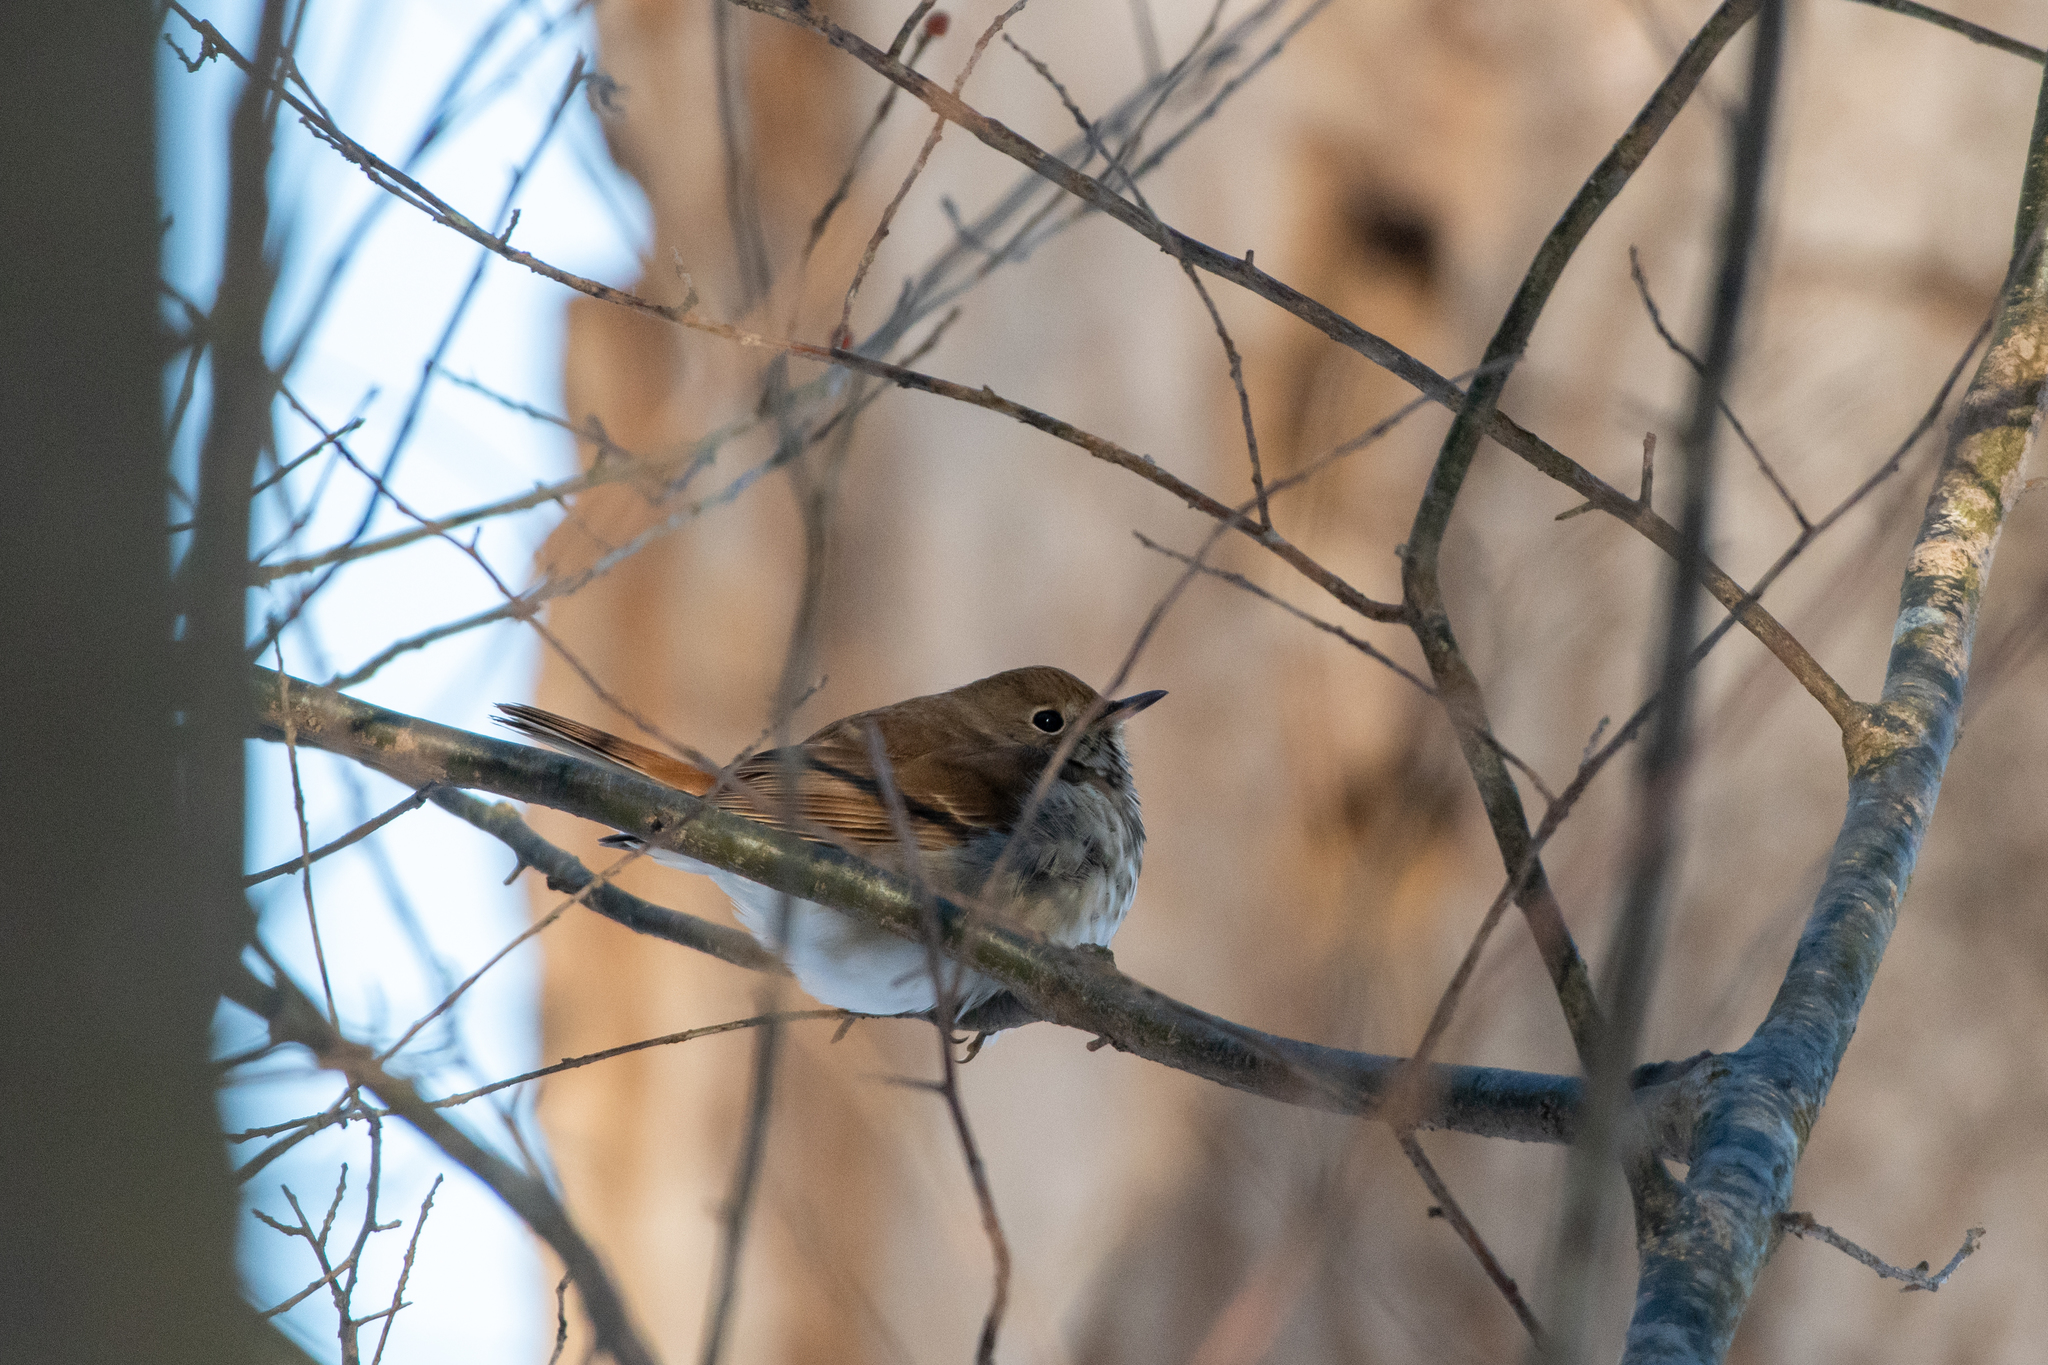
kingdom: Animalia
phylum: Chordata
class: Aves
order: Passeriformes
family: Turdidae
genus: Catharus
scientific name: Catharus guttatus
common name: Hermit thrush
